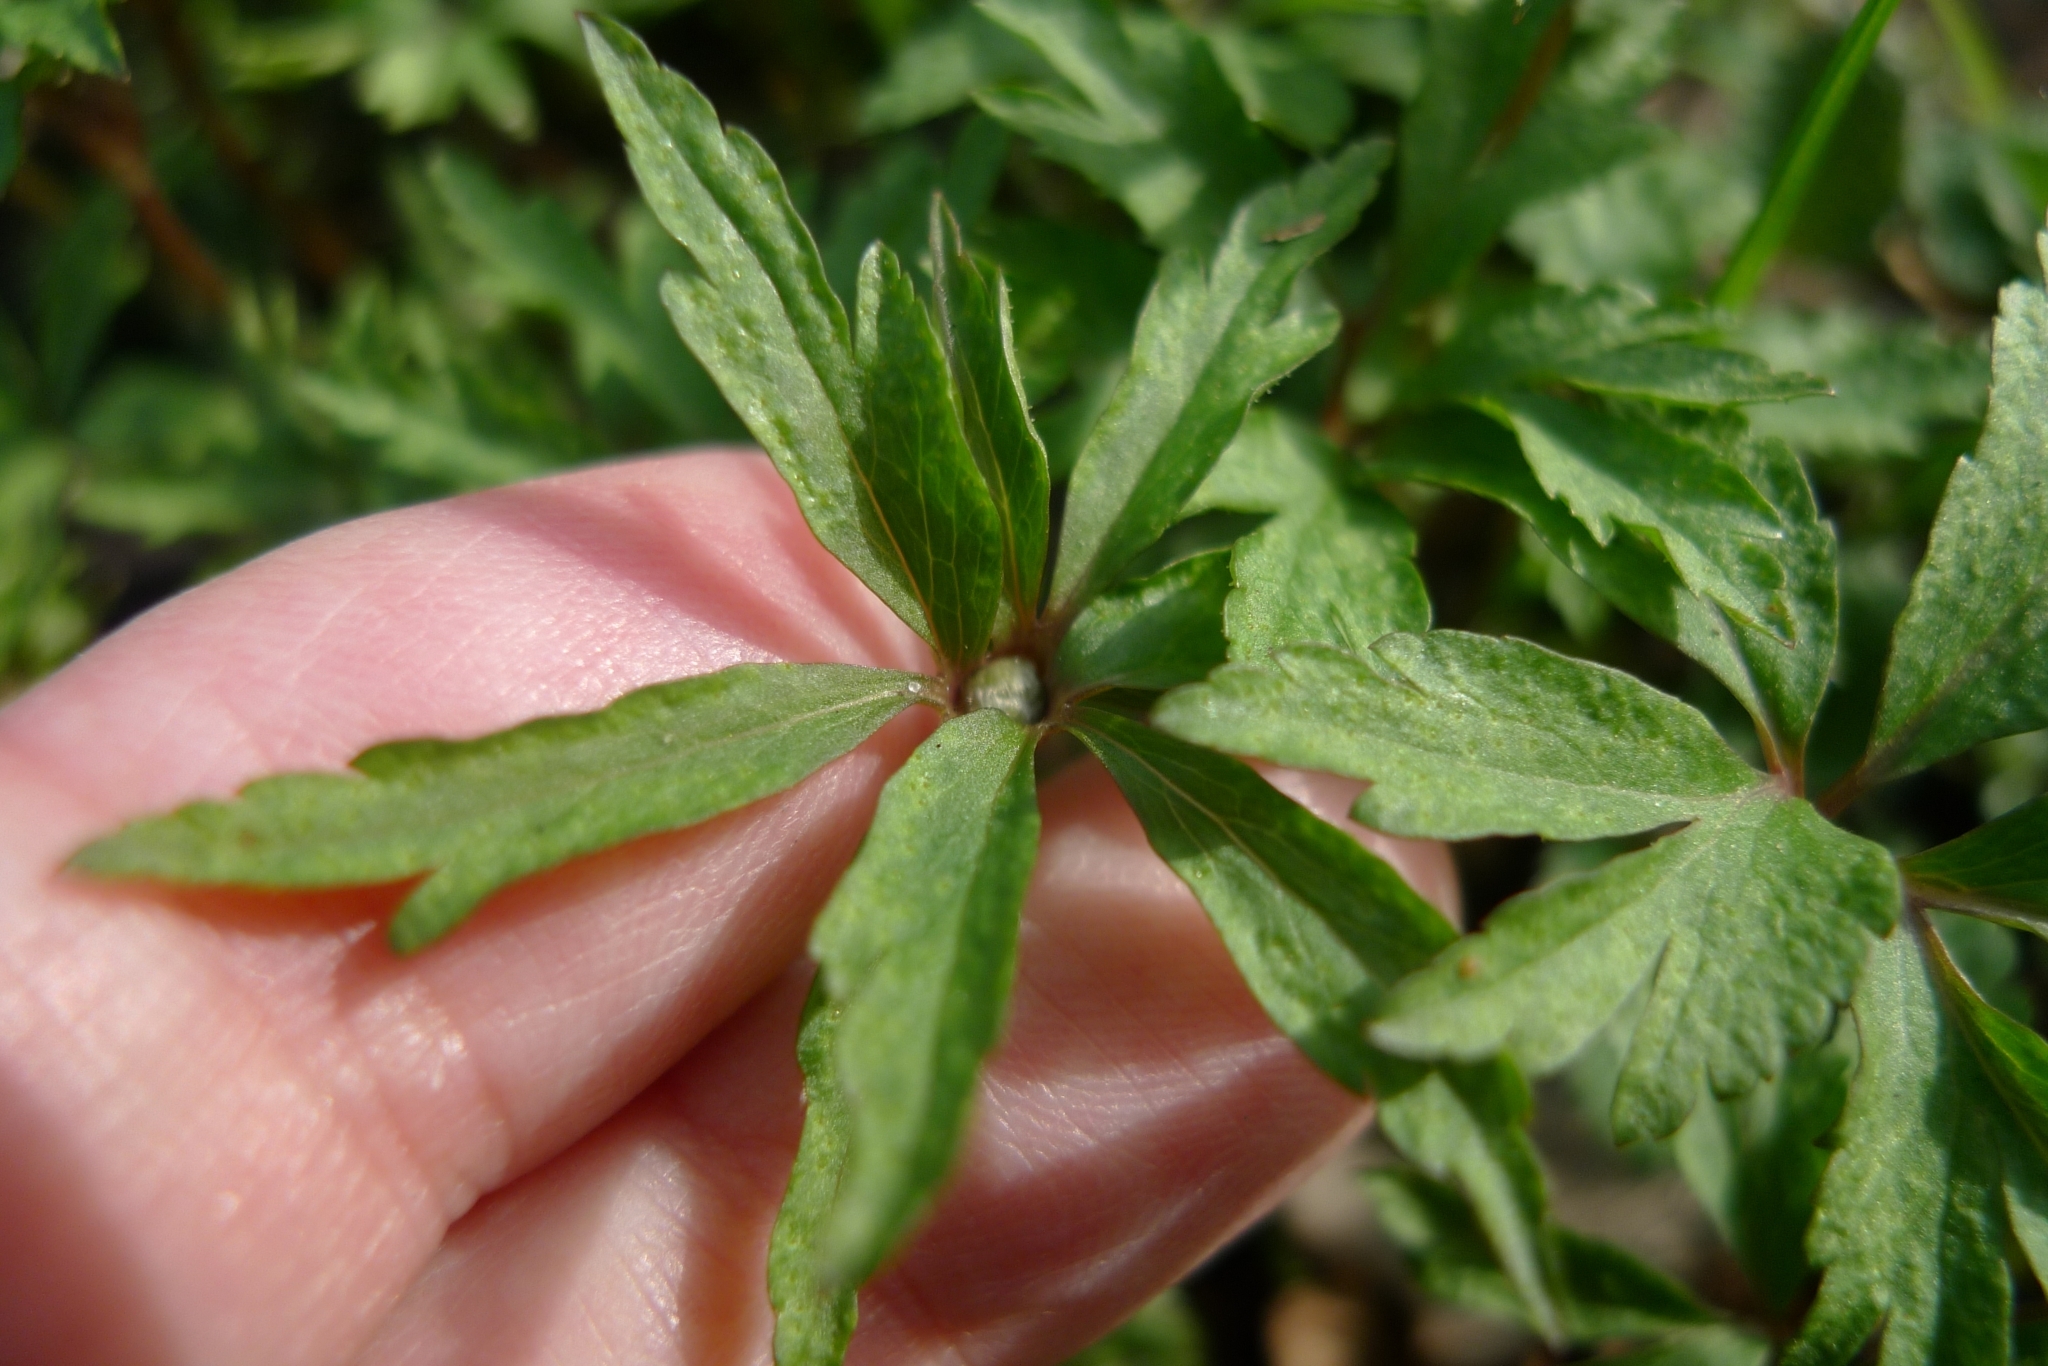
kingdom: Plantae
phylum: Tracheophyta
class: Magnoliopsida
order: Ranunculales
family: Ranunculaceae
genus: Anemone
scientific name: Anemone ranunculoides
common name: Yellow anemone
